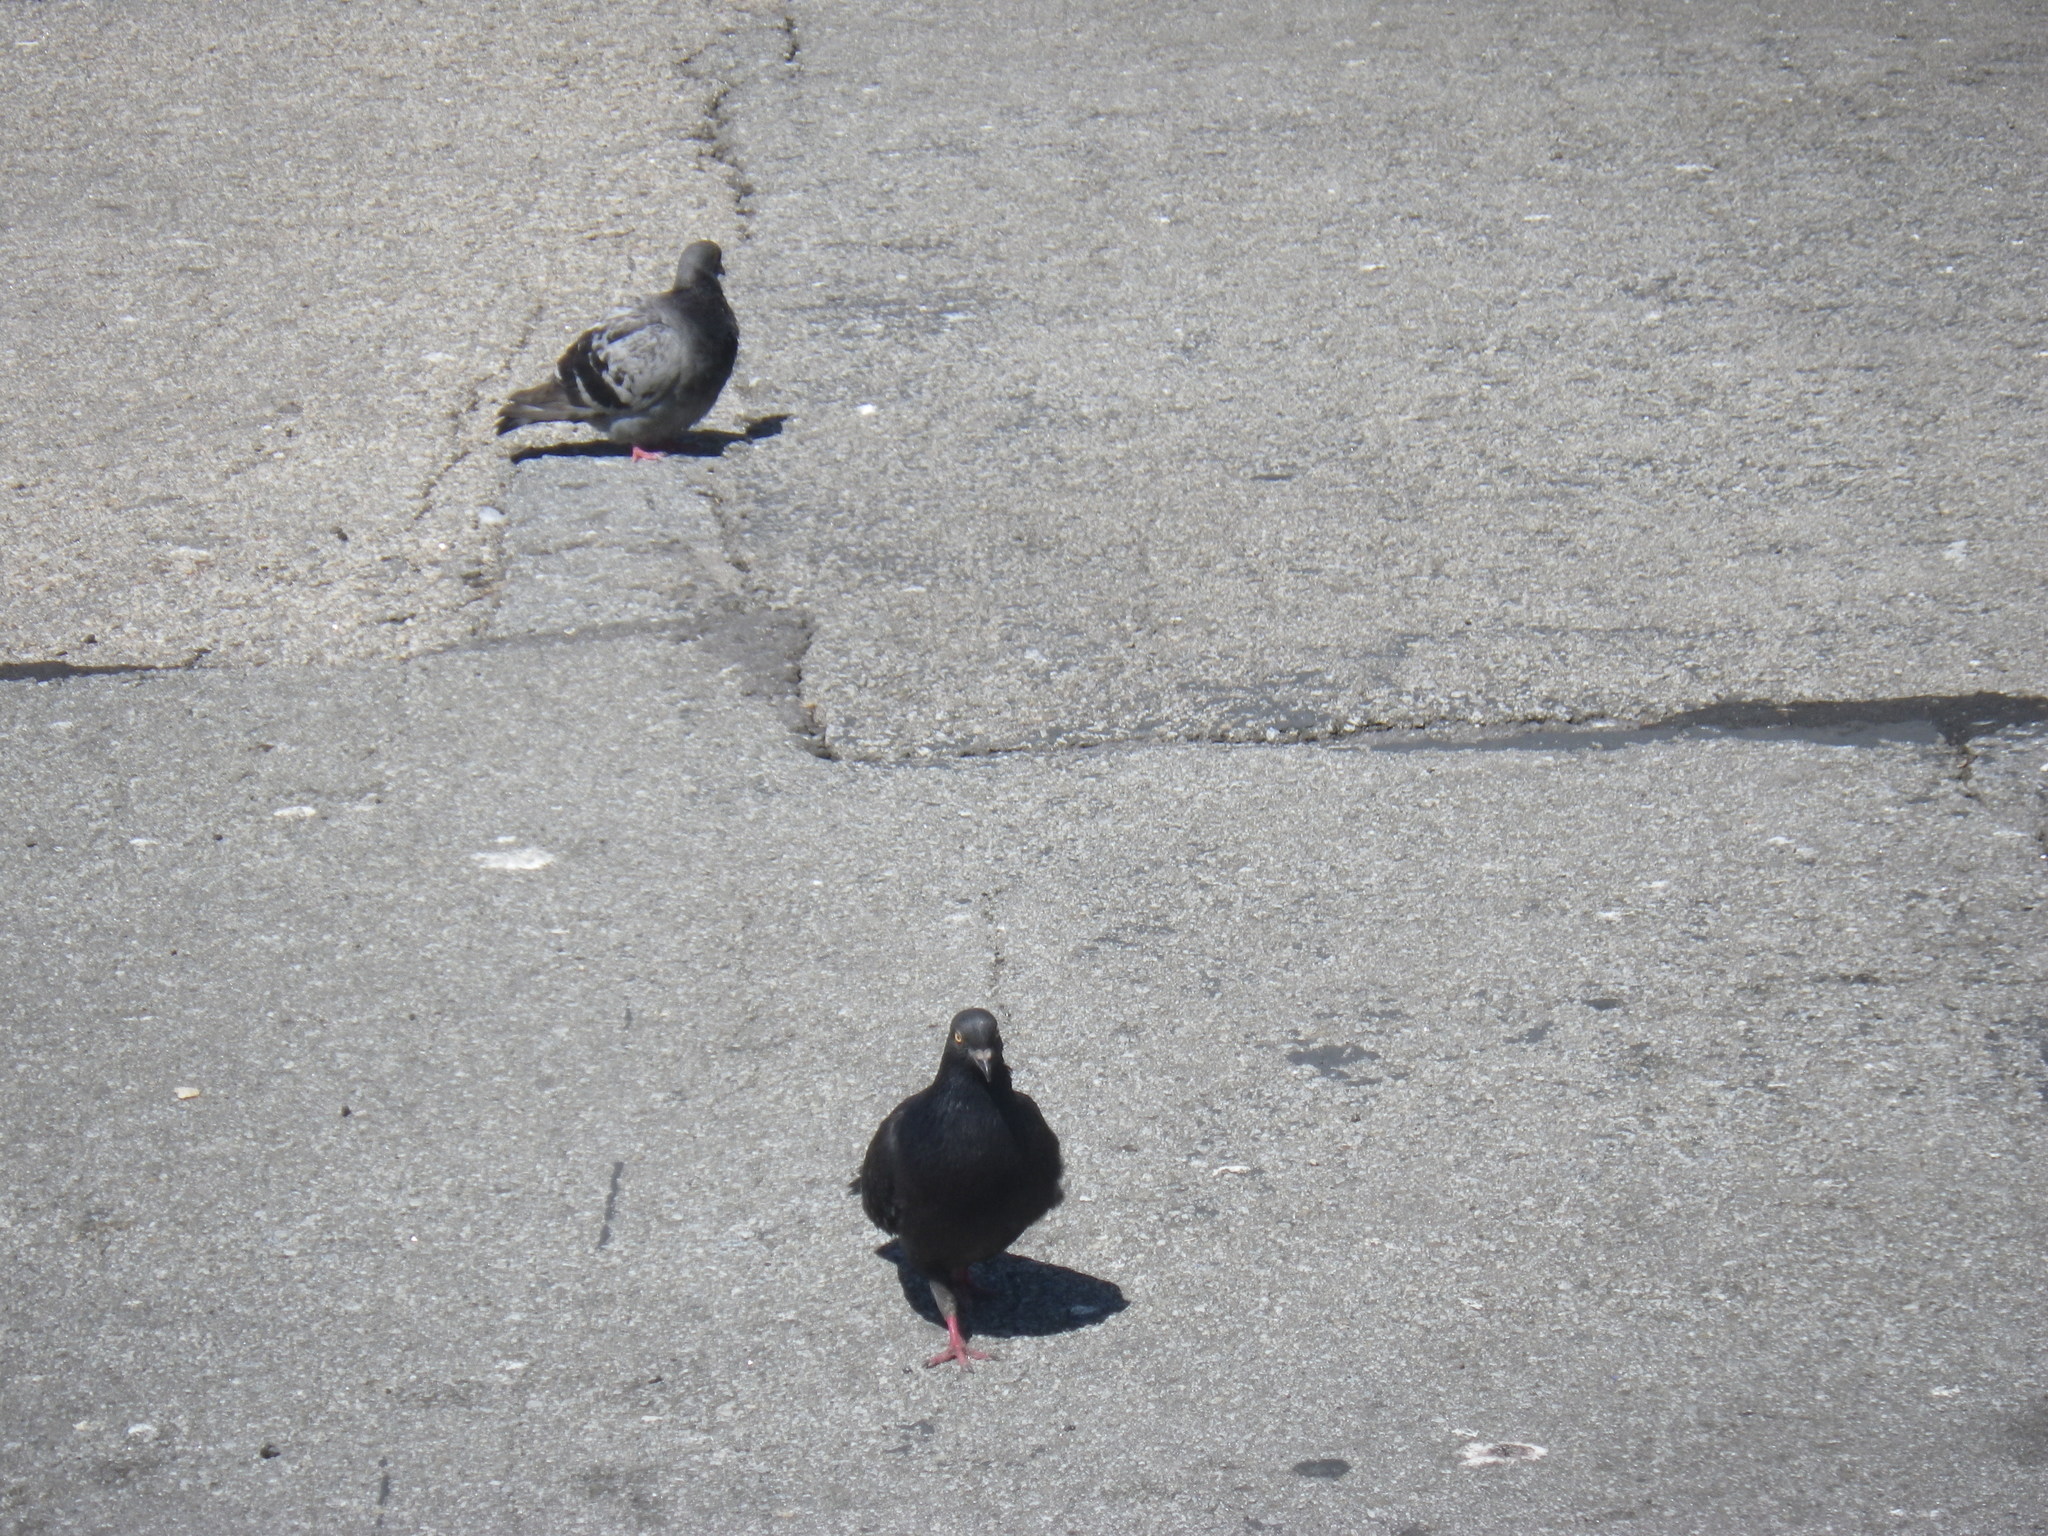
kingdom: Animalia
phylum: Chordata
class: Aves
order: Columbiformes
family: Columbidae
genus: Columba
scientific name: Columba livia
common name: Rock pigeon
